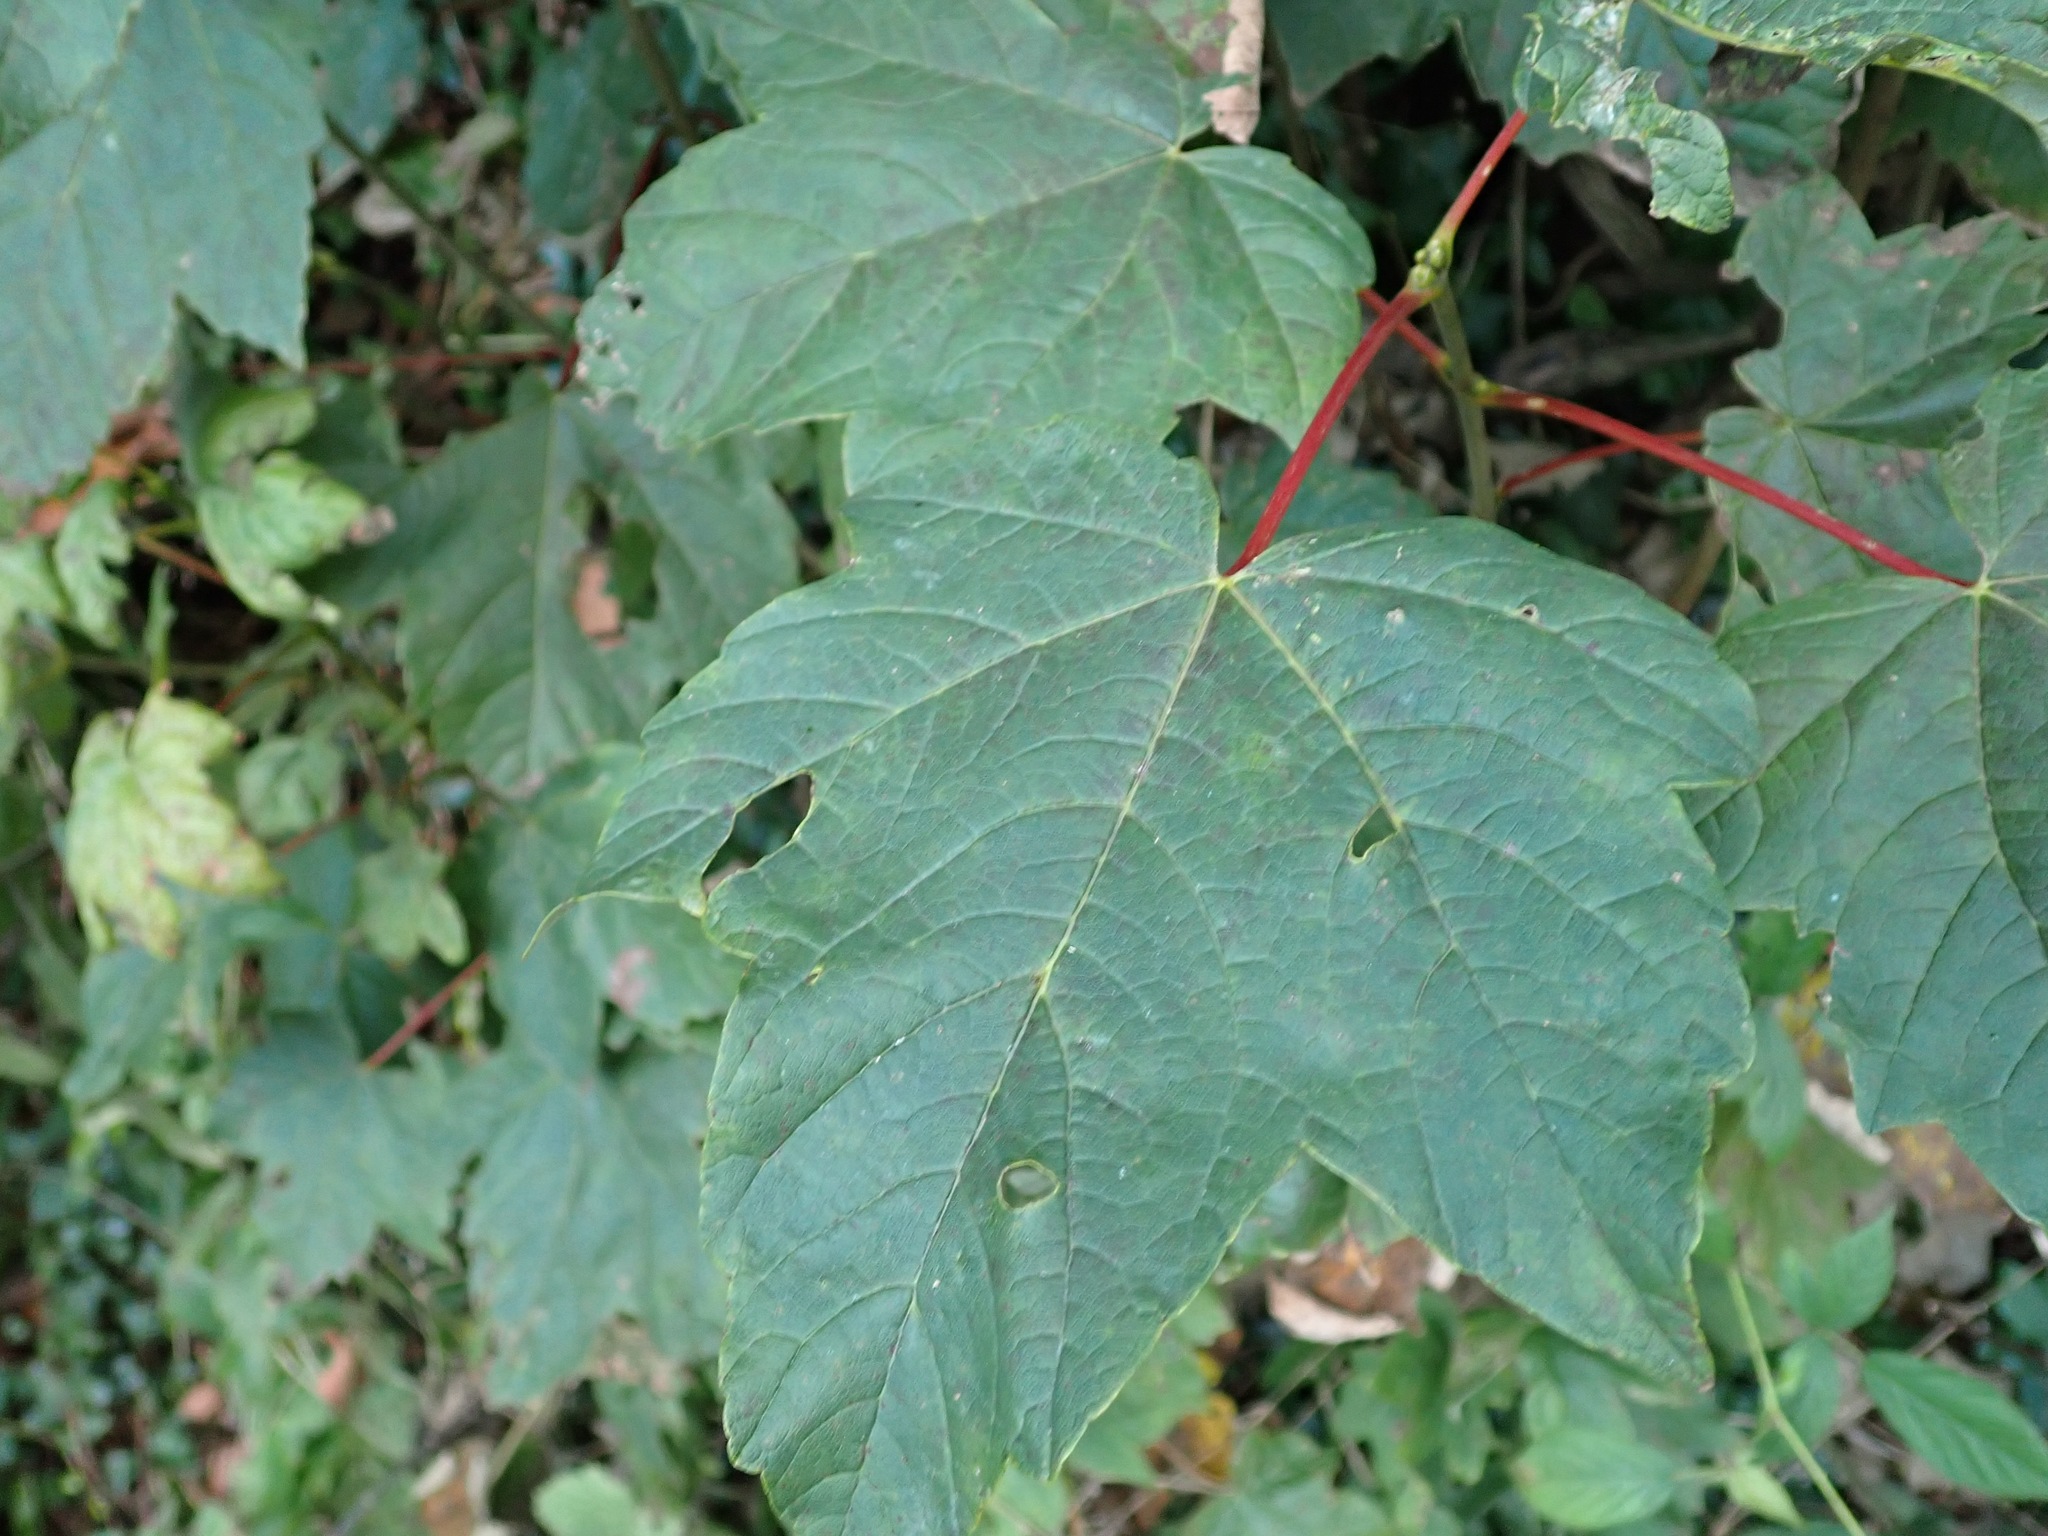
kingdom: Plantae
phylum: Tracheophyta
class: Magnoliopsida
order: Sapindales
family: Sapindaceae
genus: Acer
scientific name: Acer pseudoplatanus
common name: Sycamore
